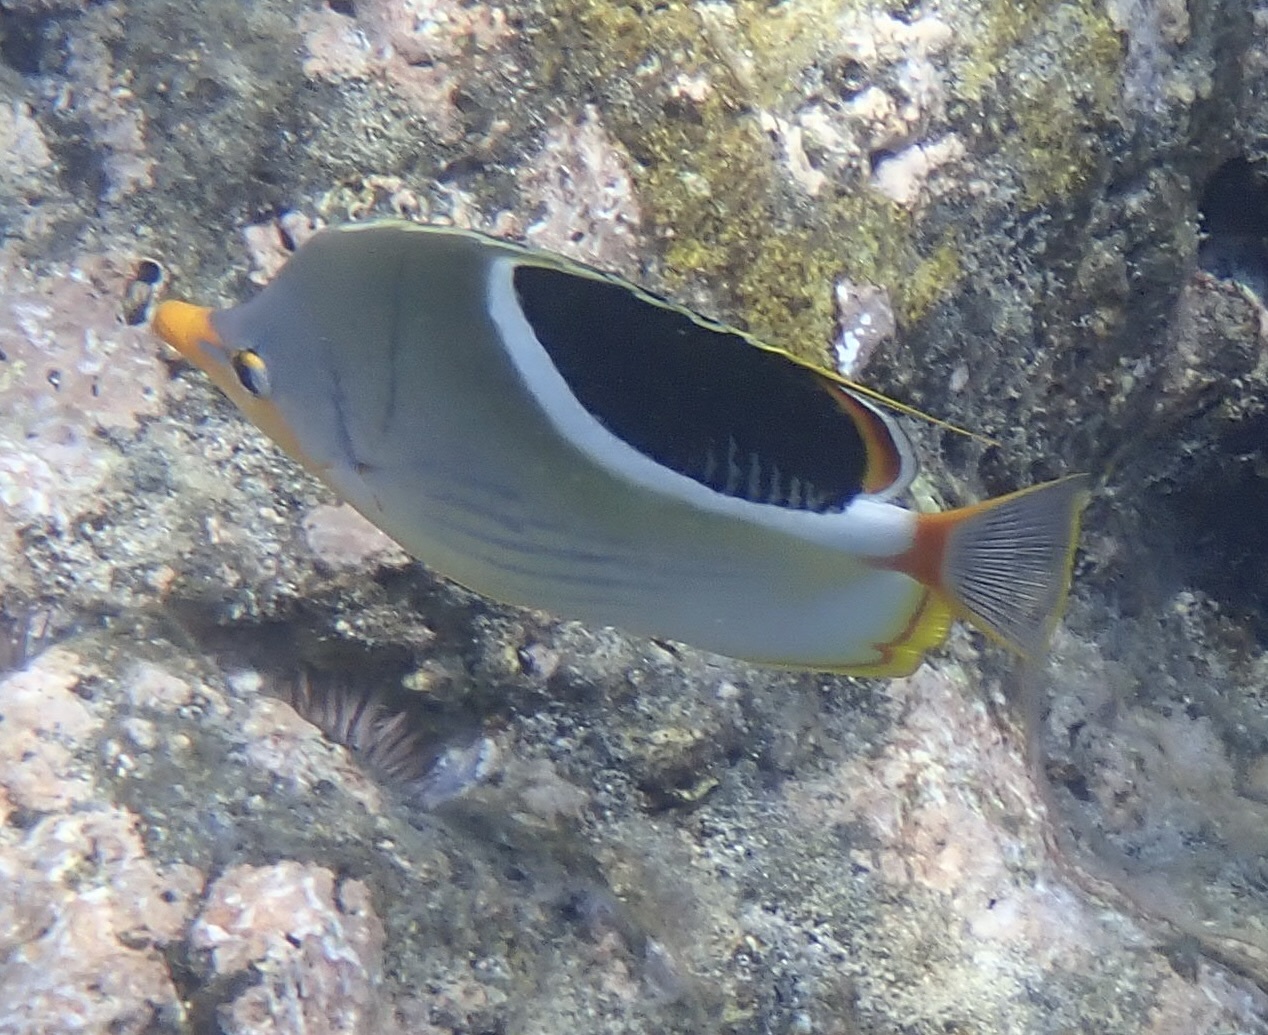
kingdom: Animalia
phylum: Chordata
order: Perciformes
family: Chaetodontidae
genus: Chaetodon
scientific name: Chaetodon ephippium
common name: Saddled butterflyfish
